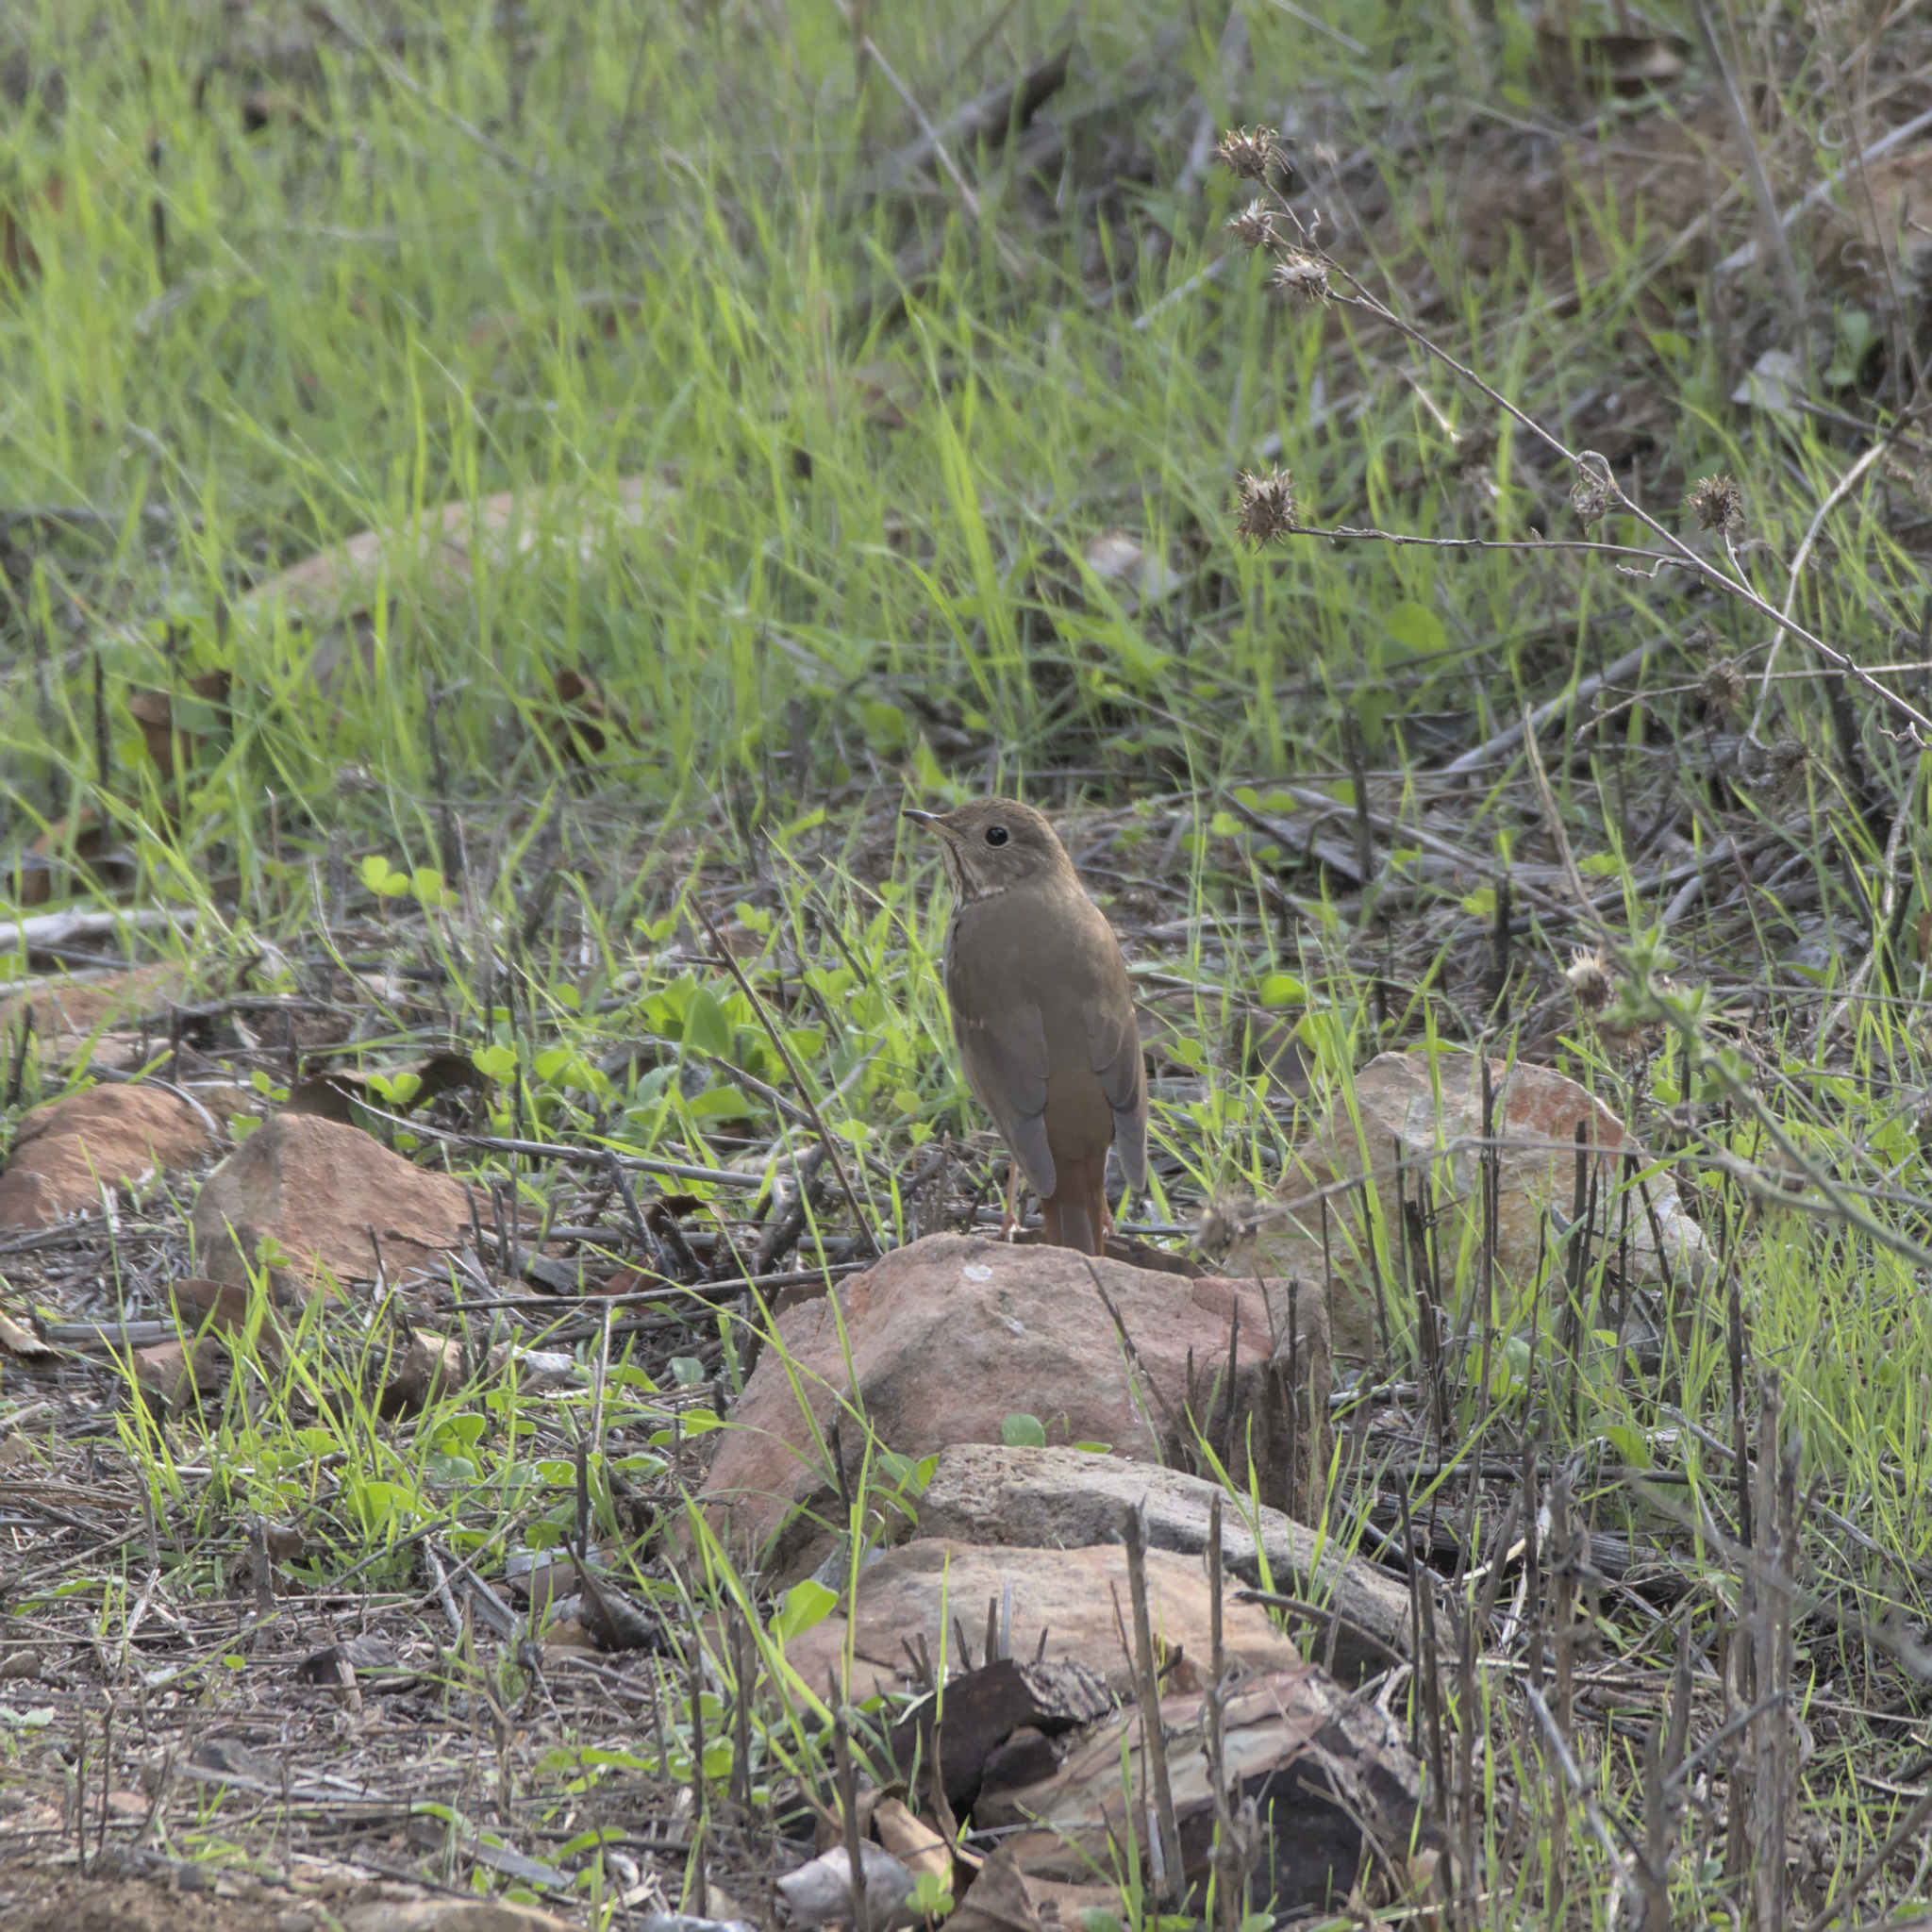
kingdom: Animalia
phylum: Chordata
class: Aves
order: Passeriformes
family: Turdidae
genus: Catharus
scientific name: Catharus guttatus
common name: Hermit thrush
